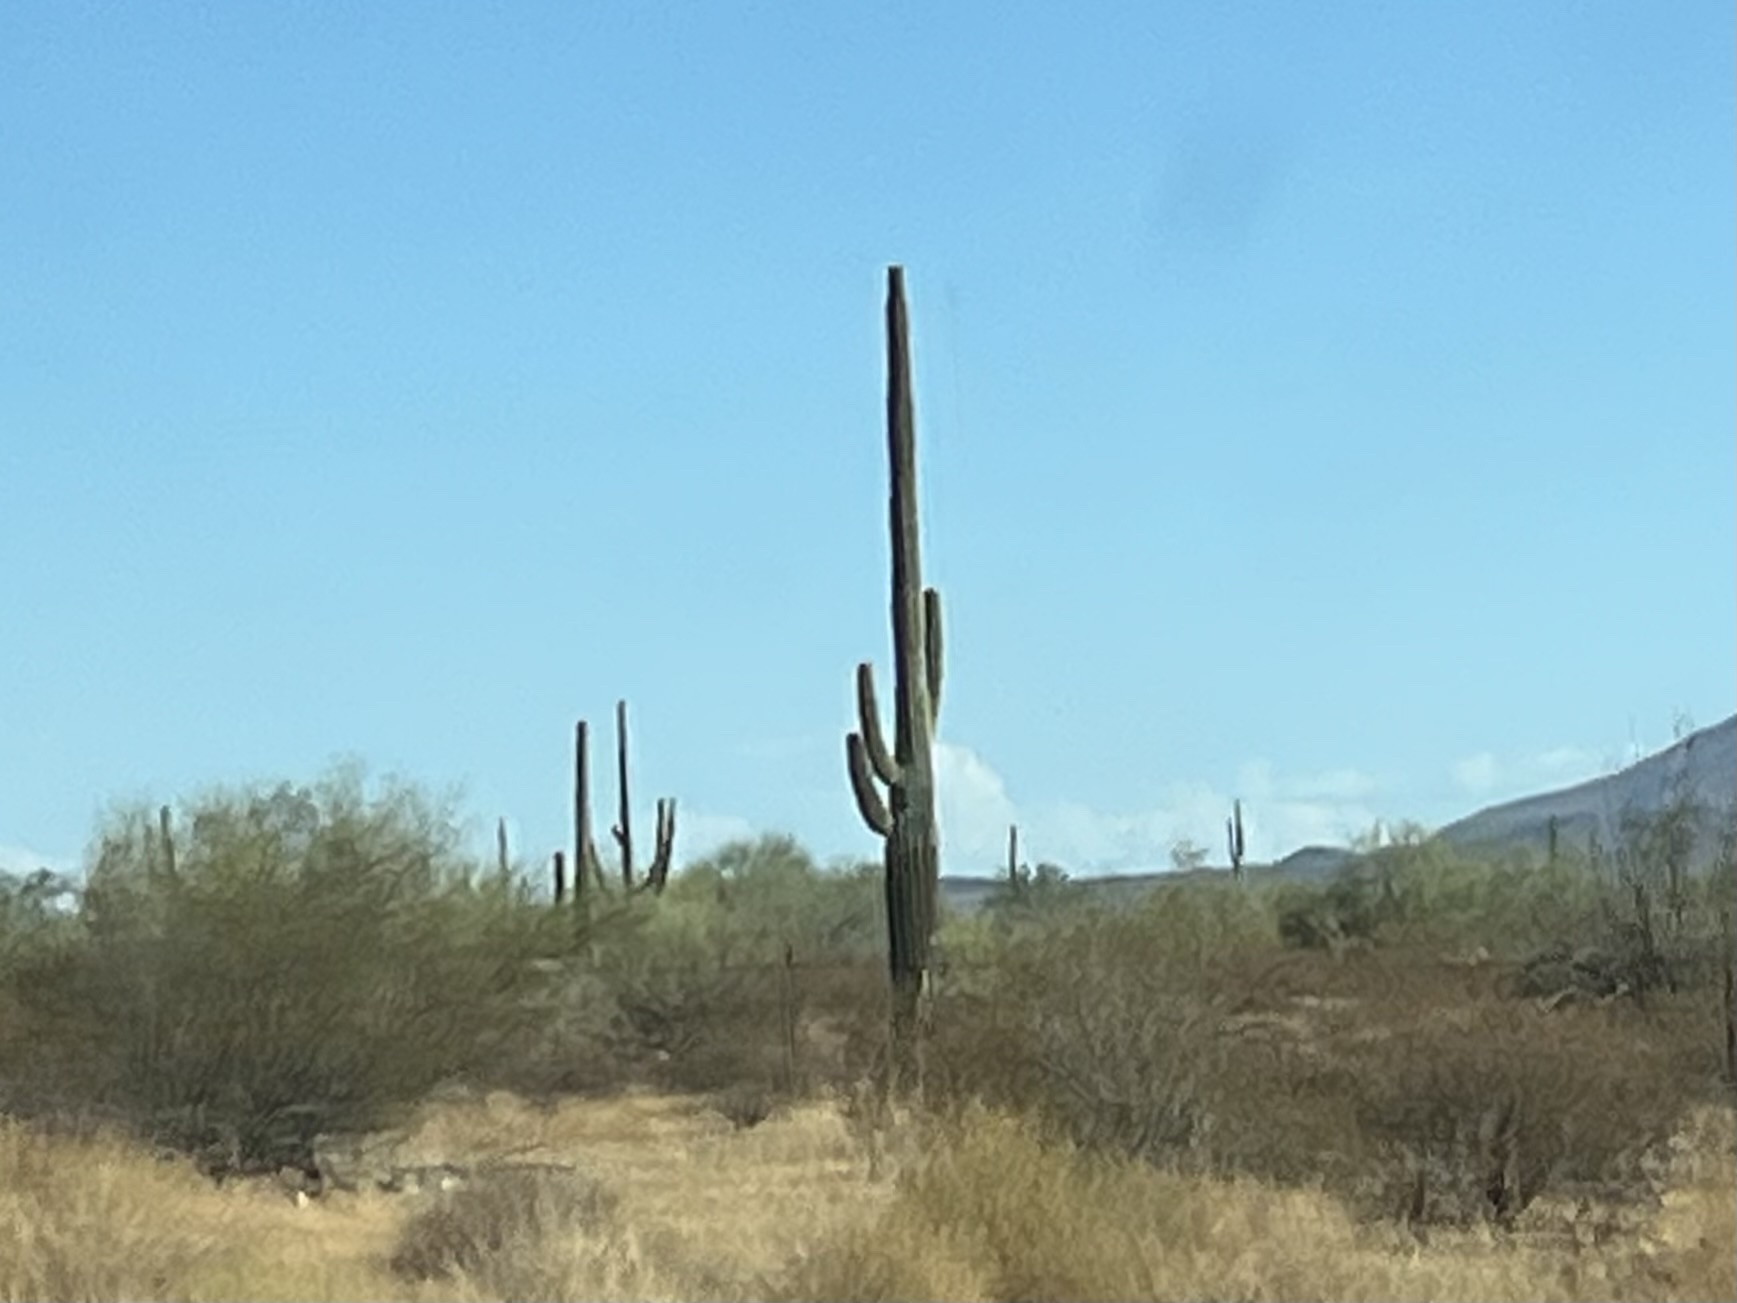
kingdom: Plantae
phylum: Tracheophyta
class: Magnoliopsida
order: Caryophyllales
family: Cactaceae
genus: Carnegiea
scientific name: Carnegiea gigantea
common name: Saguaro
